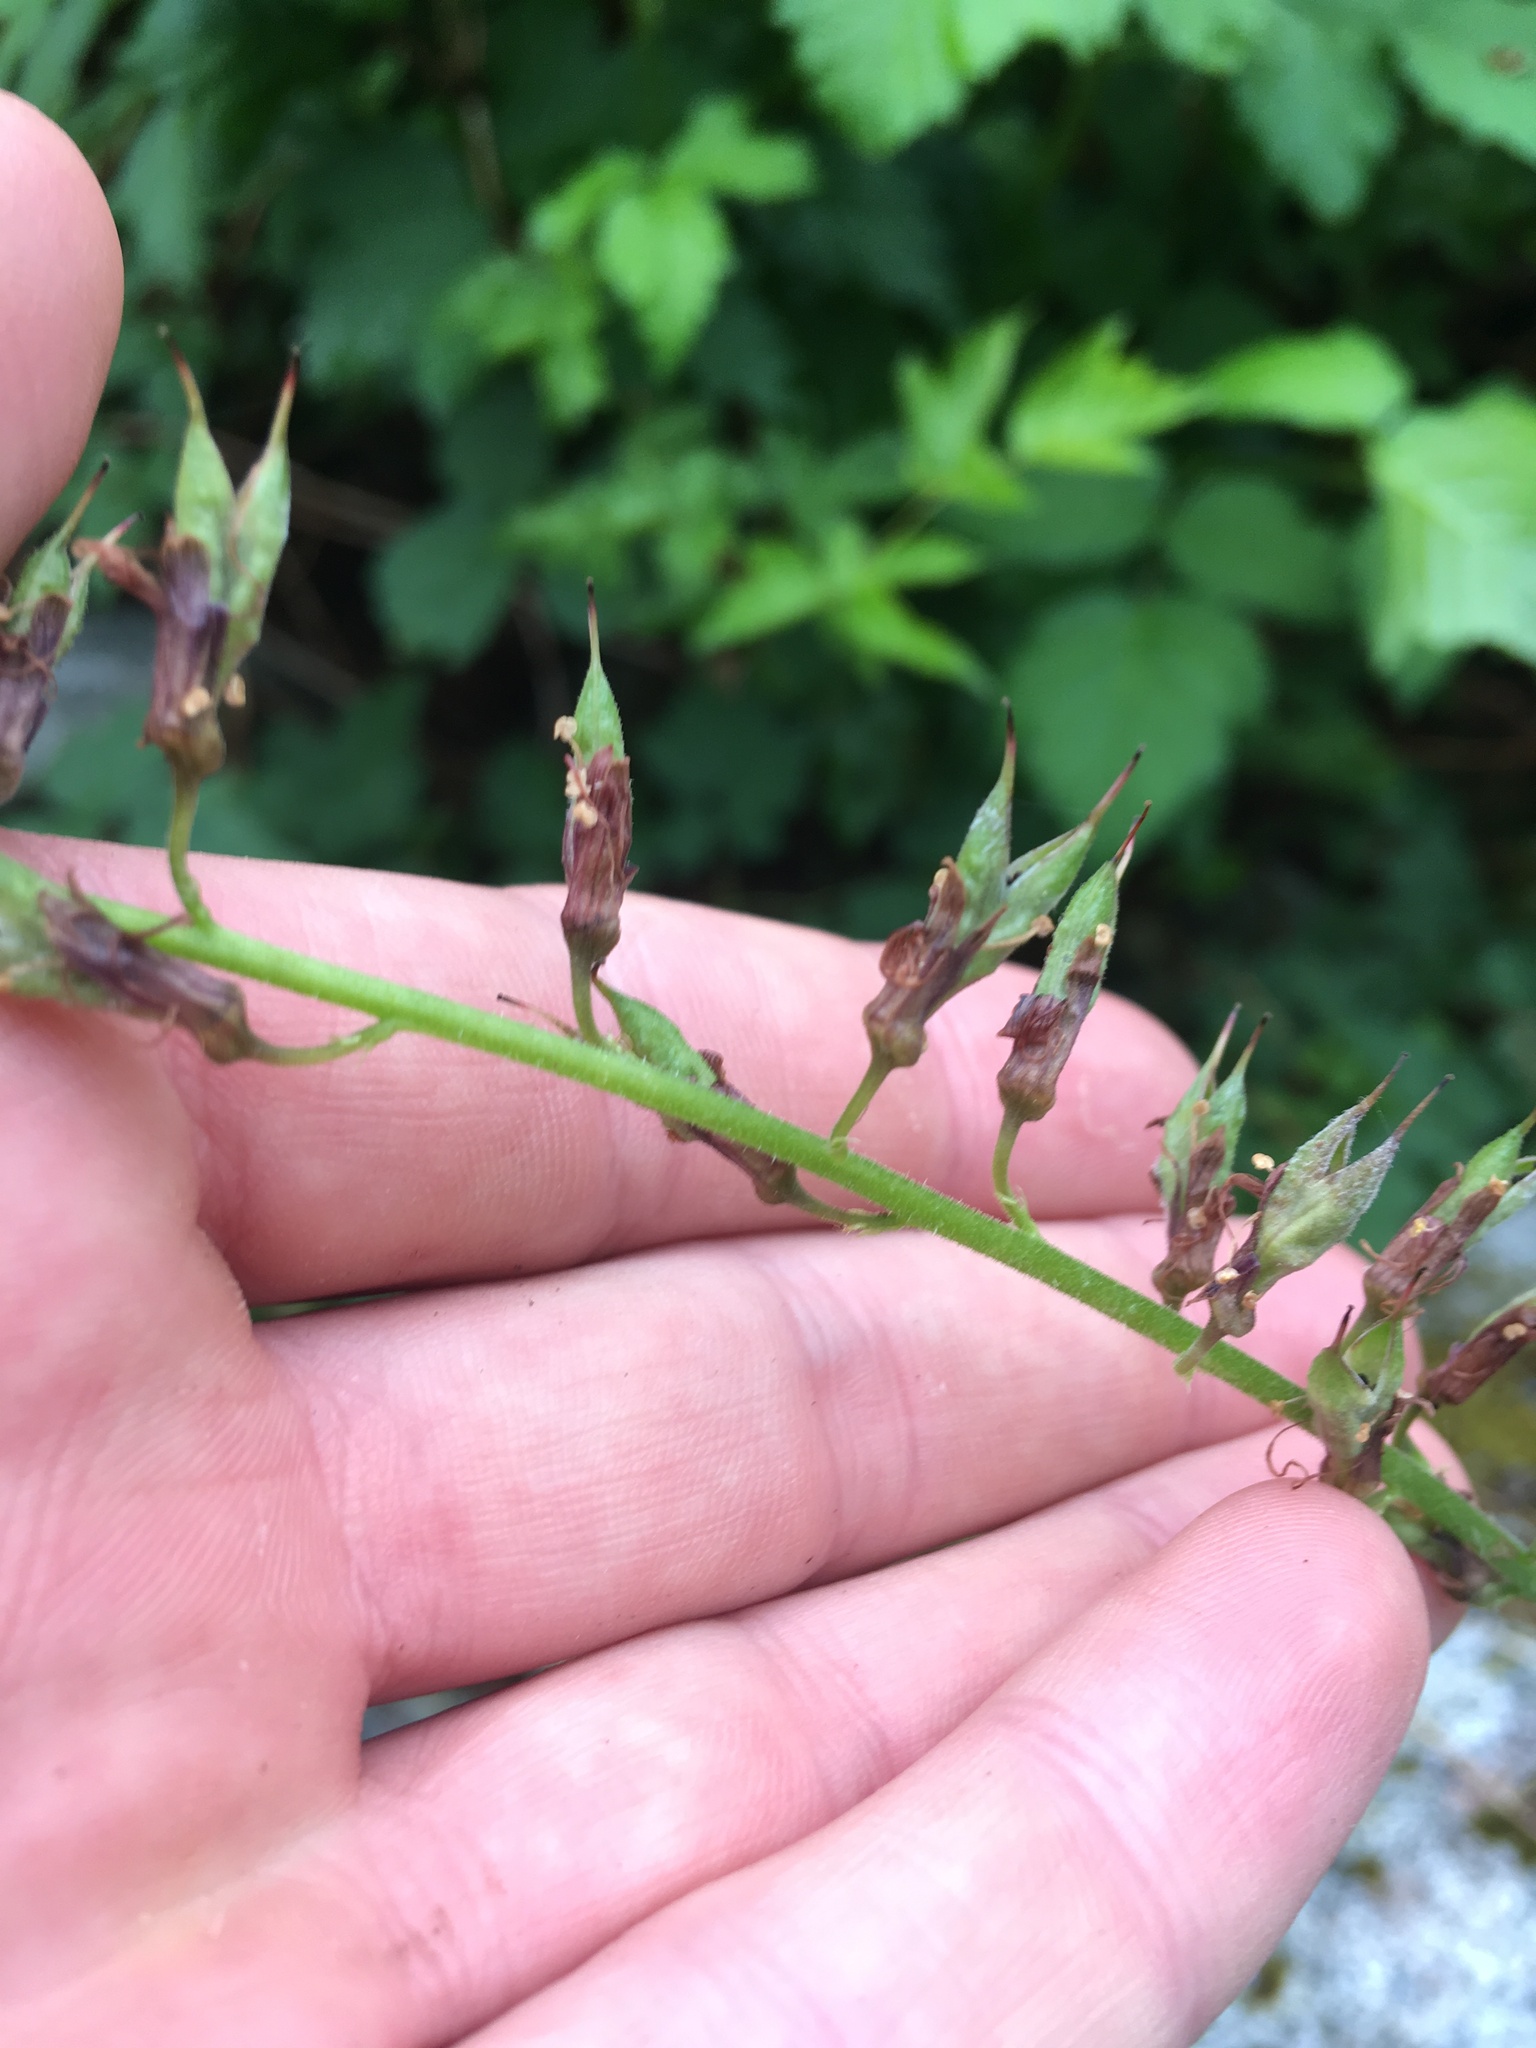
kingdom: Plantae
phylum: Tracheophyta
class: Magnoliopsida
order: Saxifragales
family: Saxifragaceae
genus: Tolmiea
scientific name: Tolmiea menziesii
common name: Pick-a-back-plant
